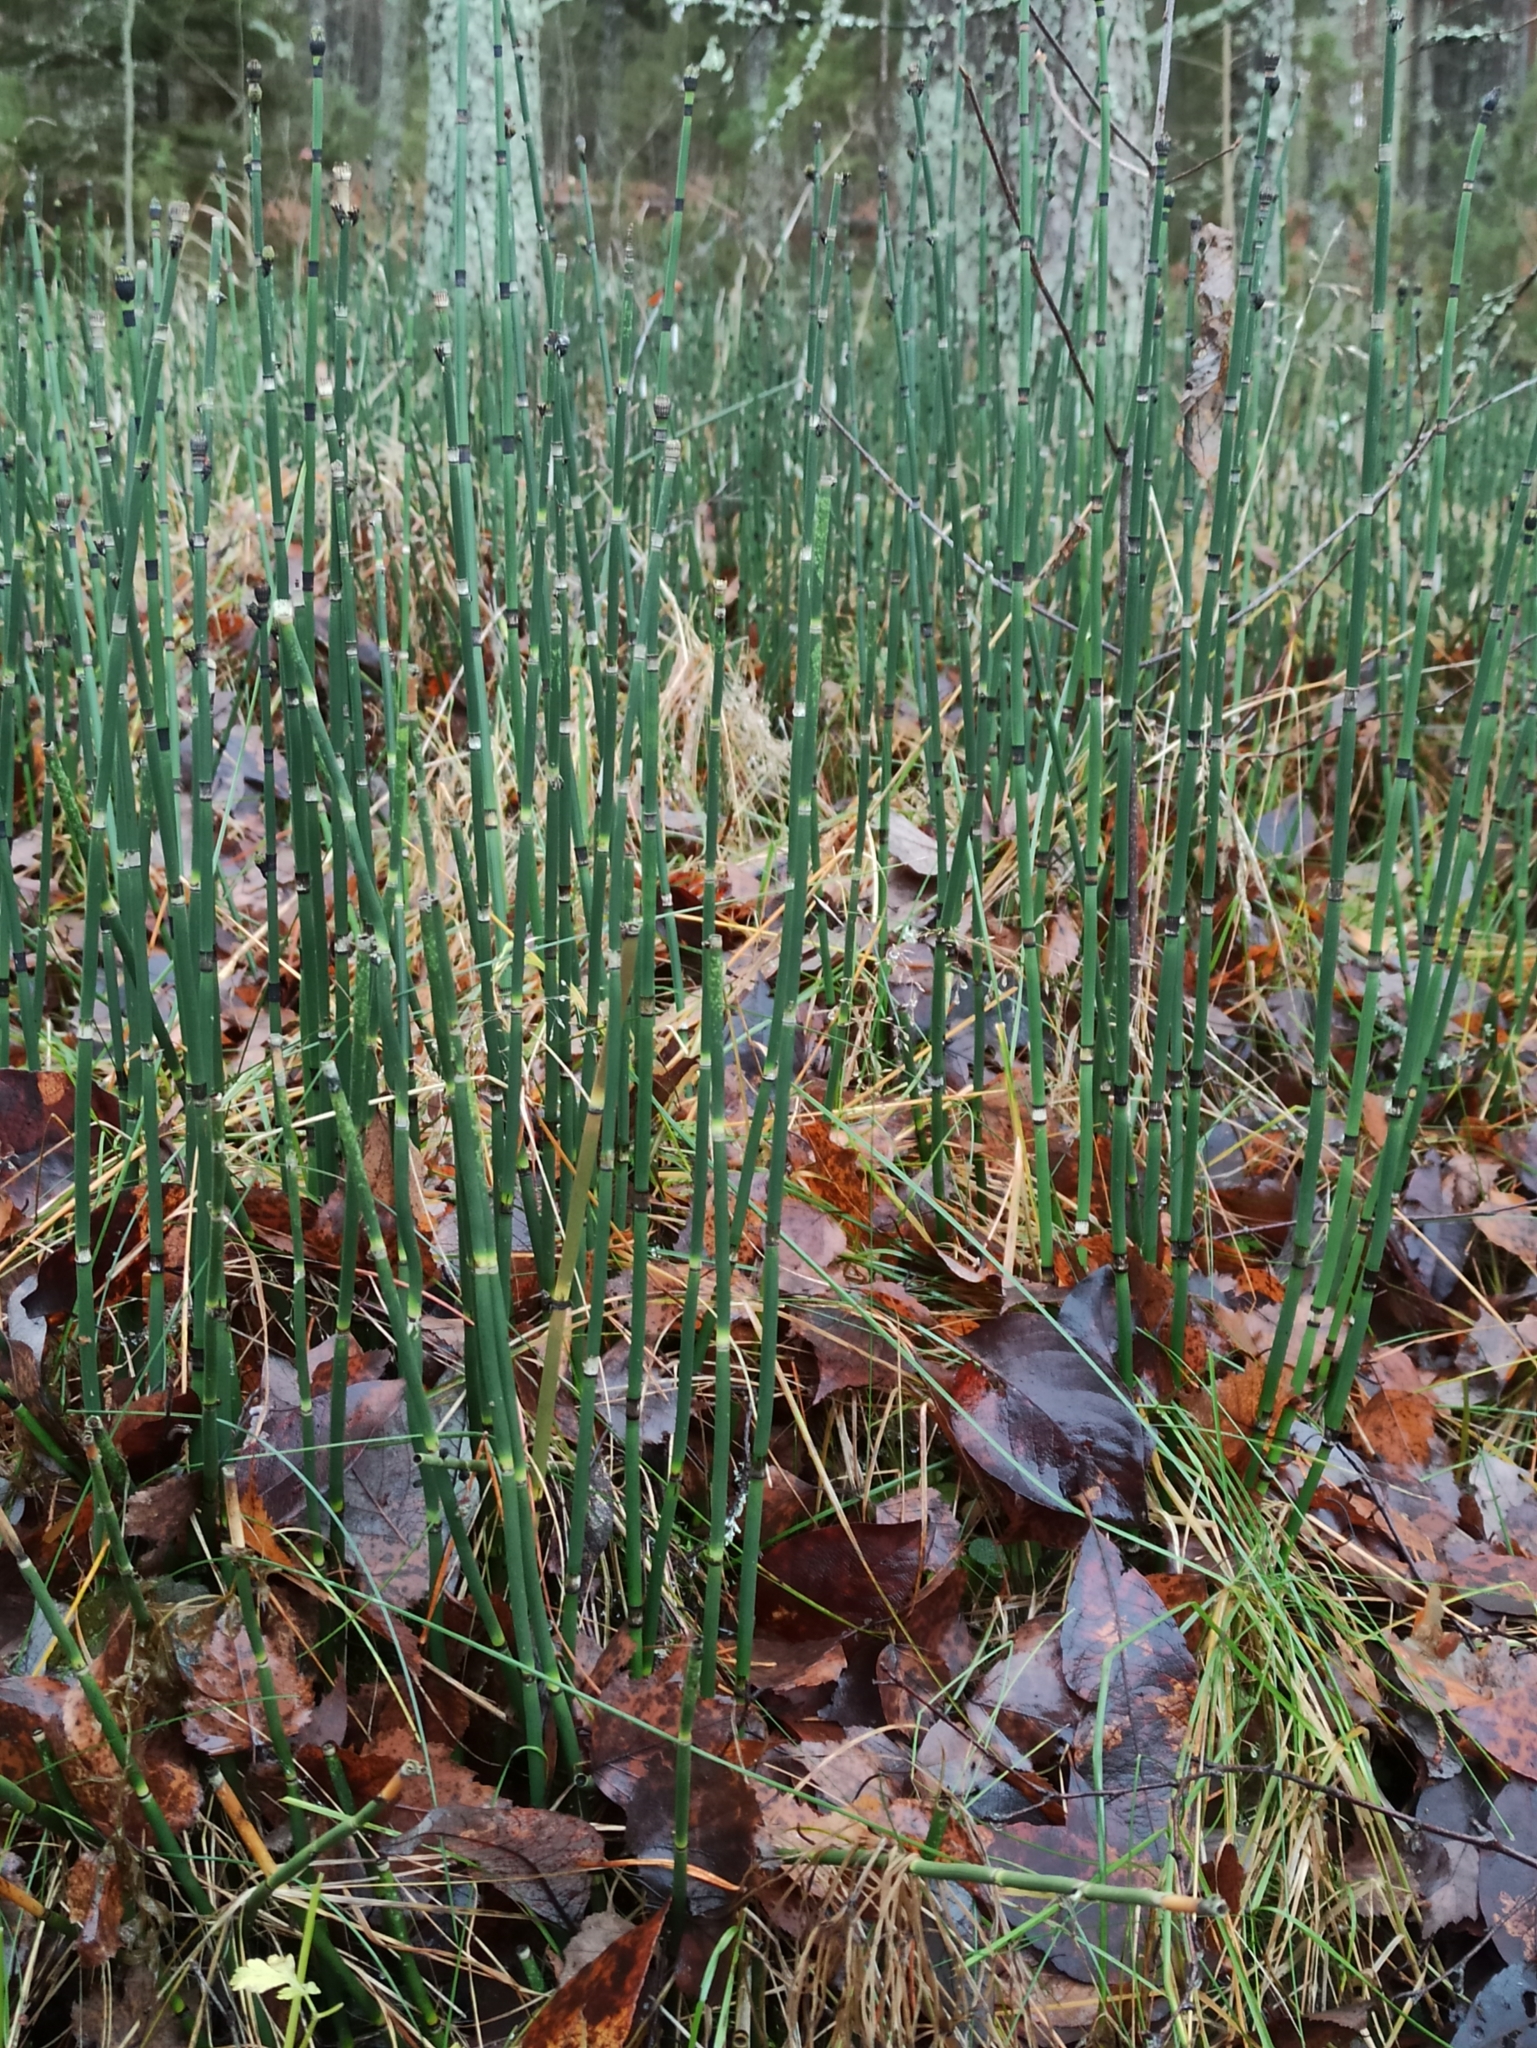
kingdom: Plantae
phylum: Tracheophyta
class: Polypodiopsida
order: Equisetales
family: Equisetaceae
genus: Equisetum
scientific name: Equisetum hyemale
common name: Rough horsetail
